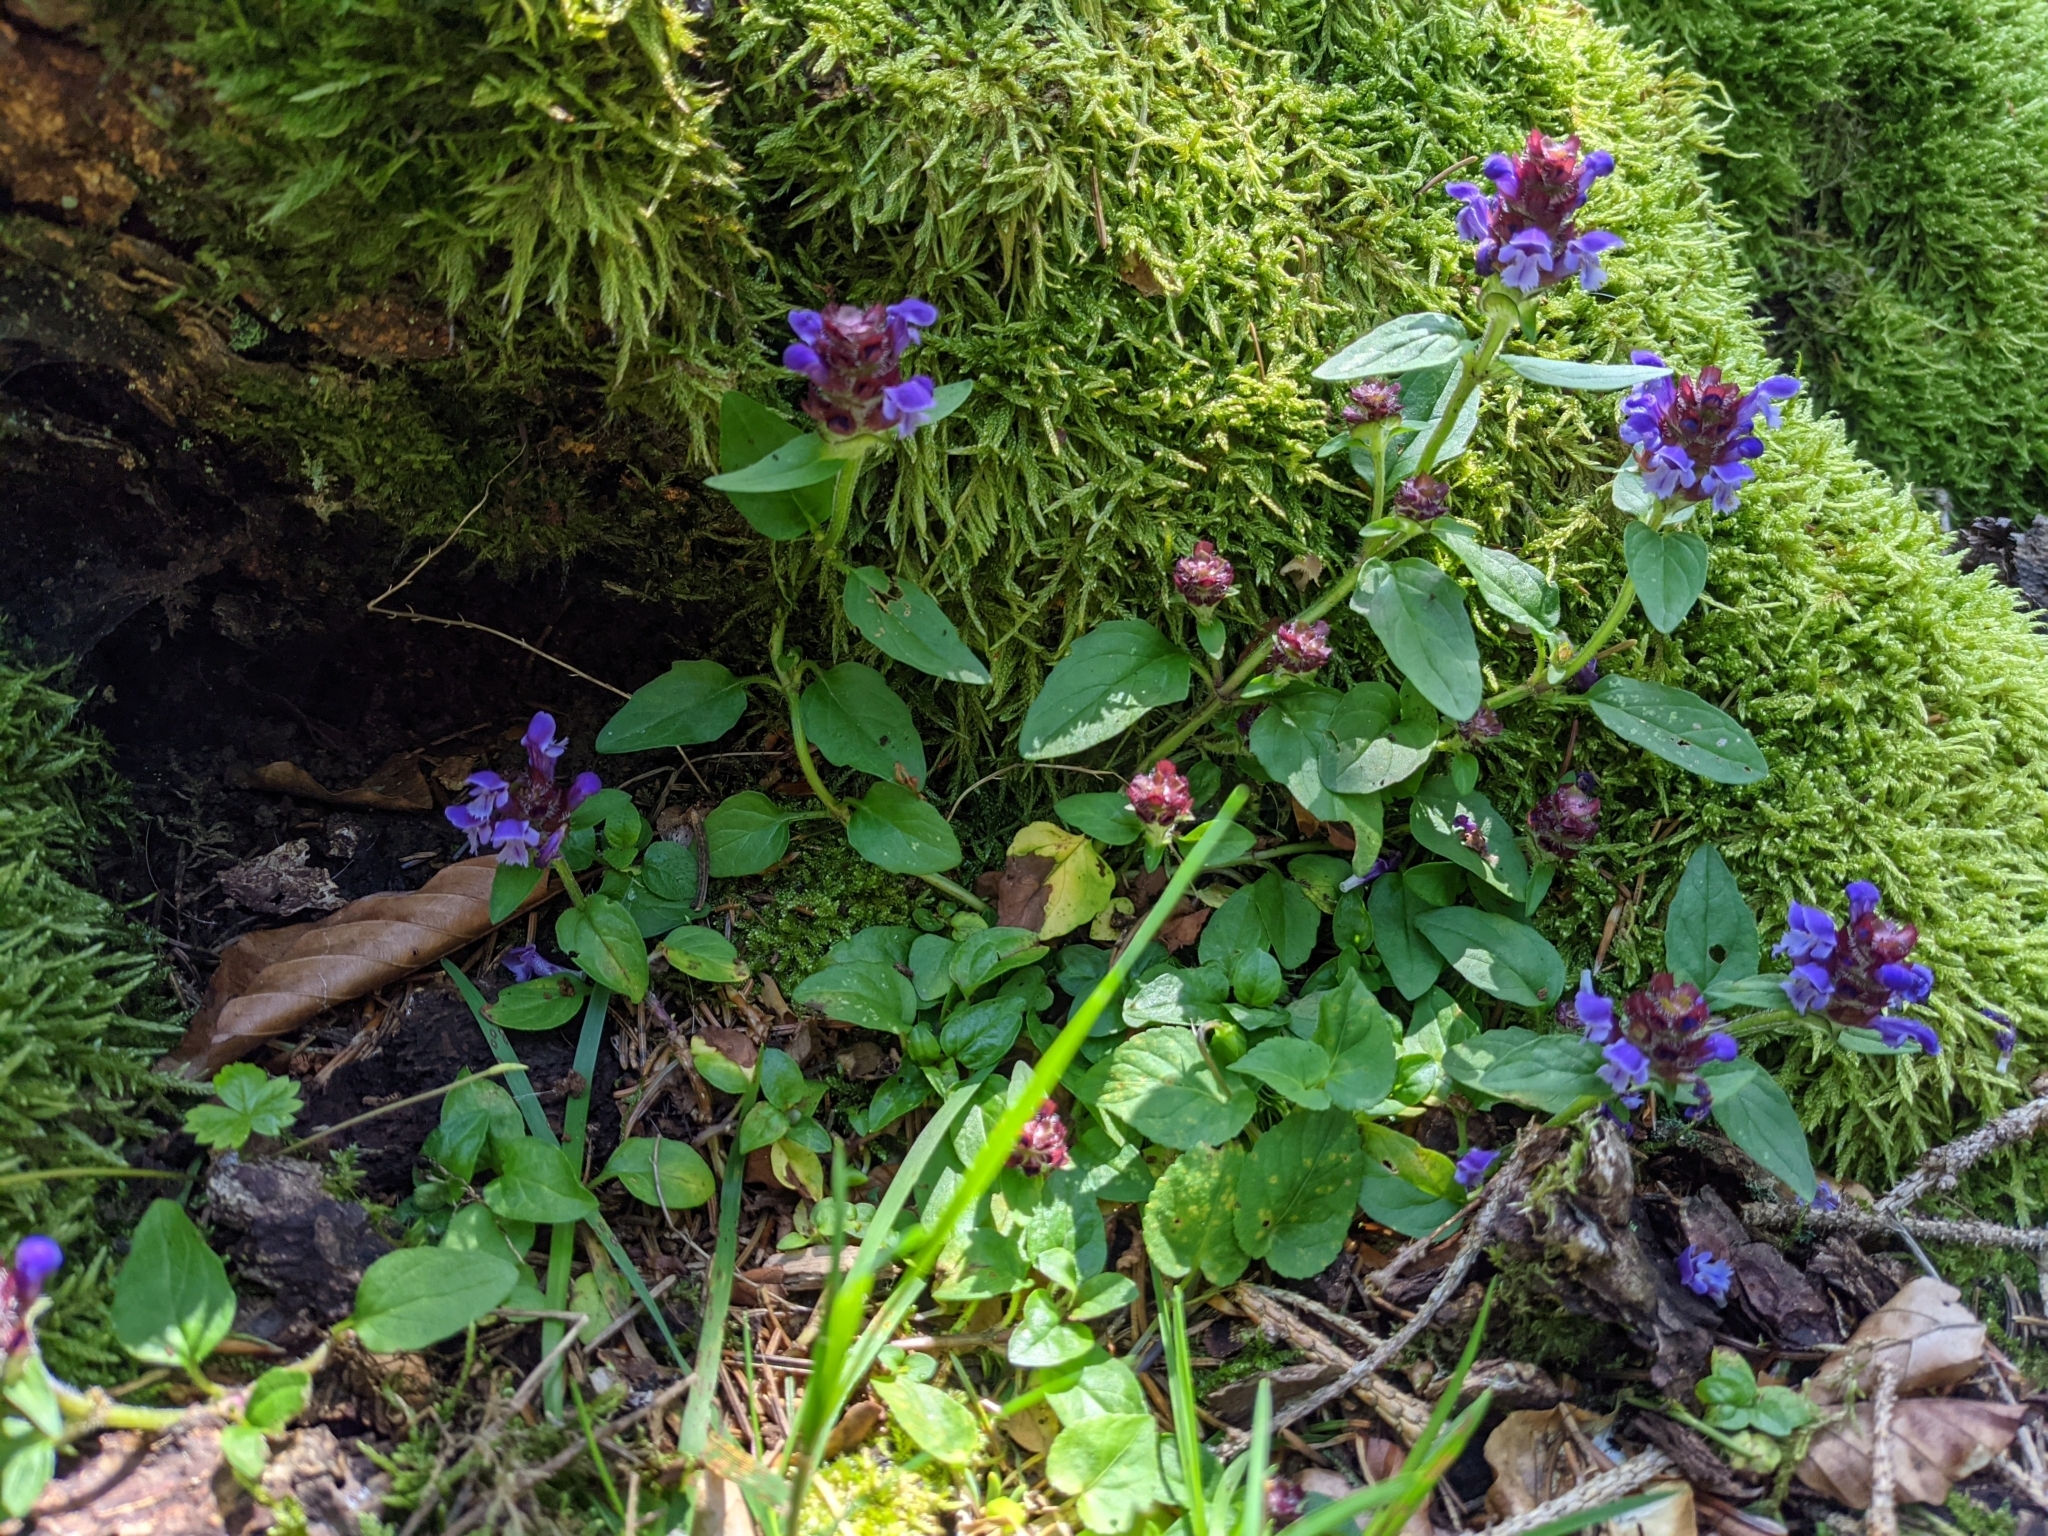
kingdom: Plantae
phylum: Tracheophyta
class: Magnoliopsida
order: Lamiales
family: Lamiaceae
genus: Prunella
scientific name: Prunella vulgaris
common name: Heal-all
